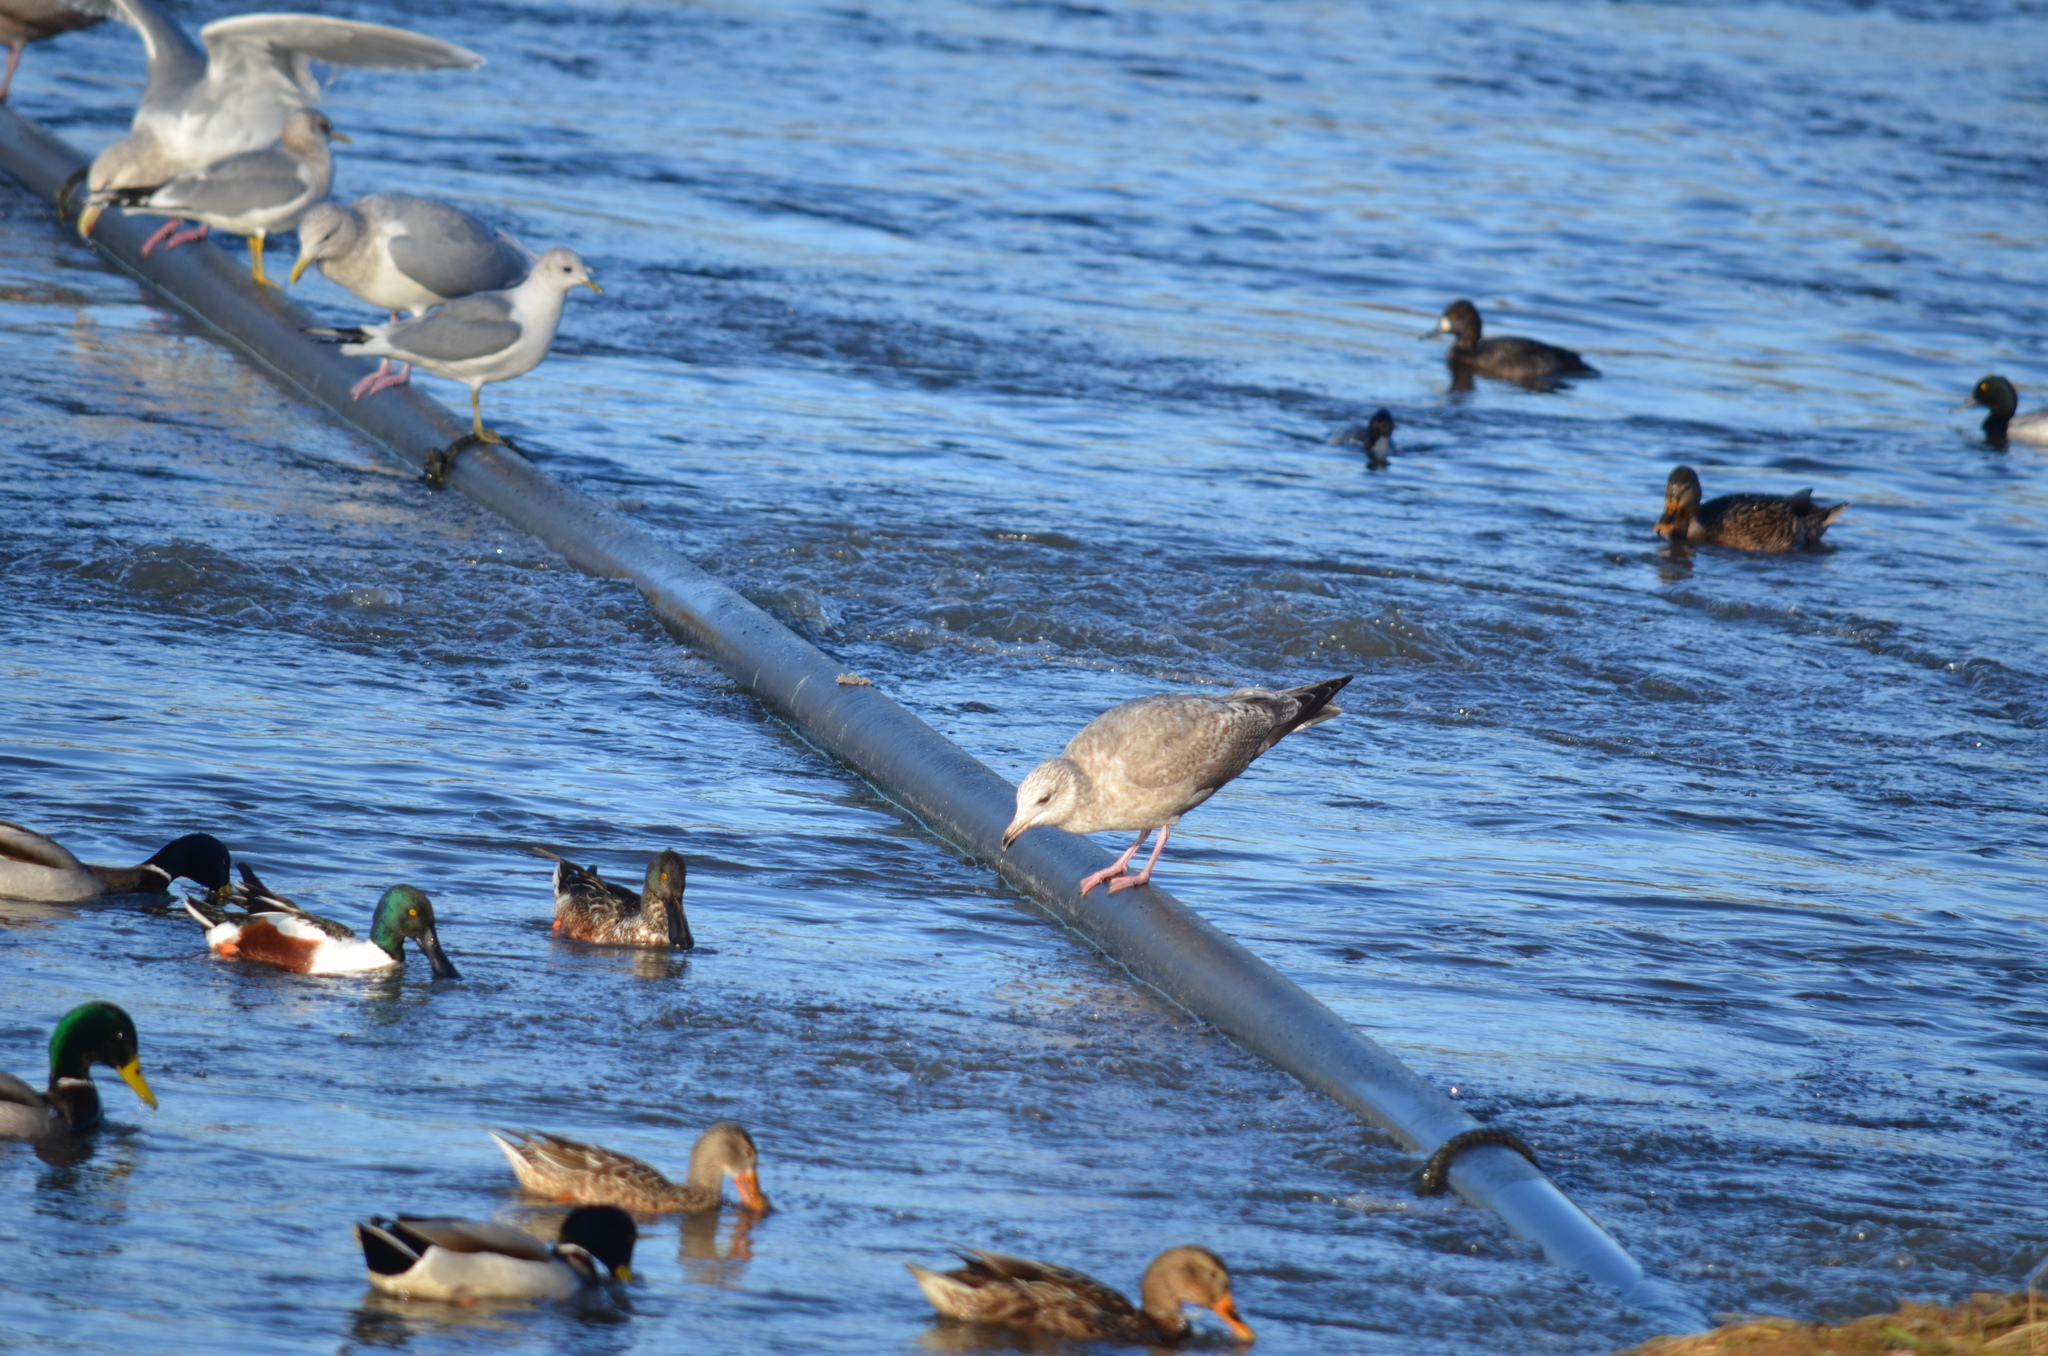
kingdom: Animalia
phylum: Chordata
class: Aves
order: Charadriiformes
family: Laridae
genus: Larus
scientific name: Larus argentatus
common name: Herring gull
